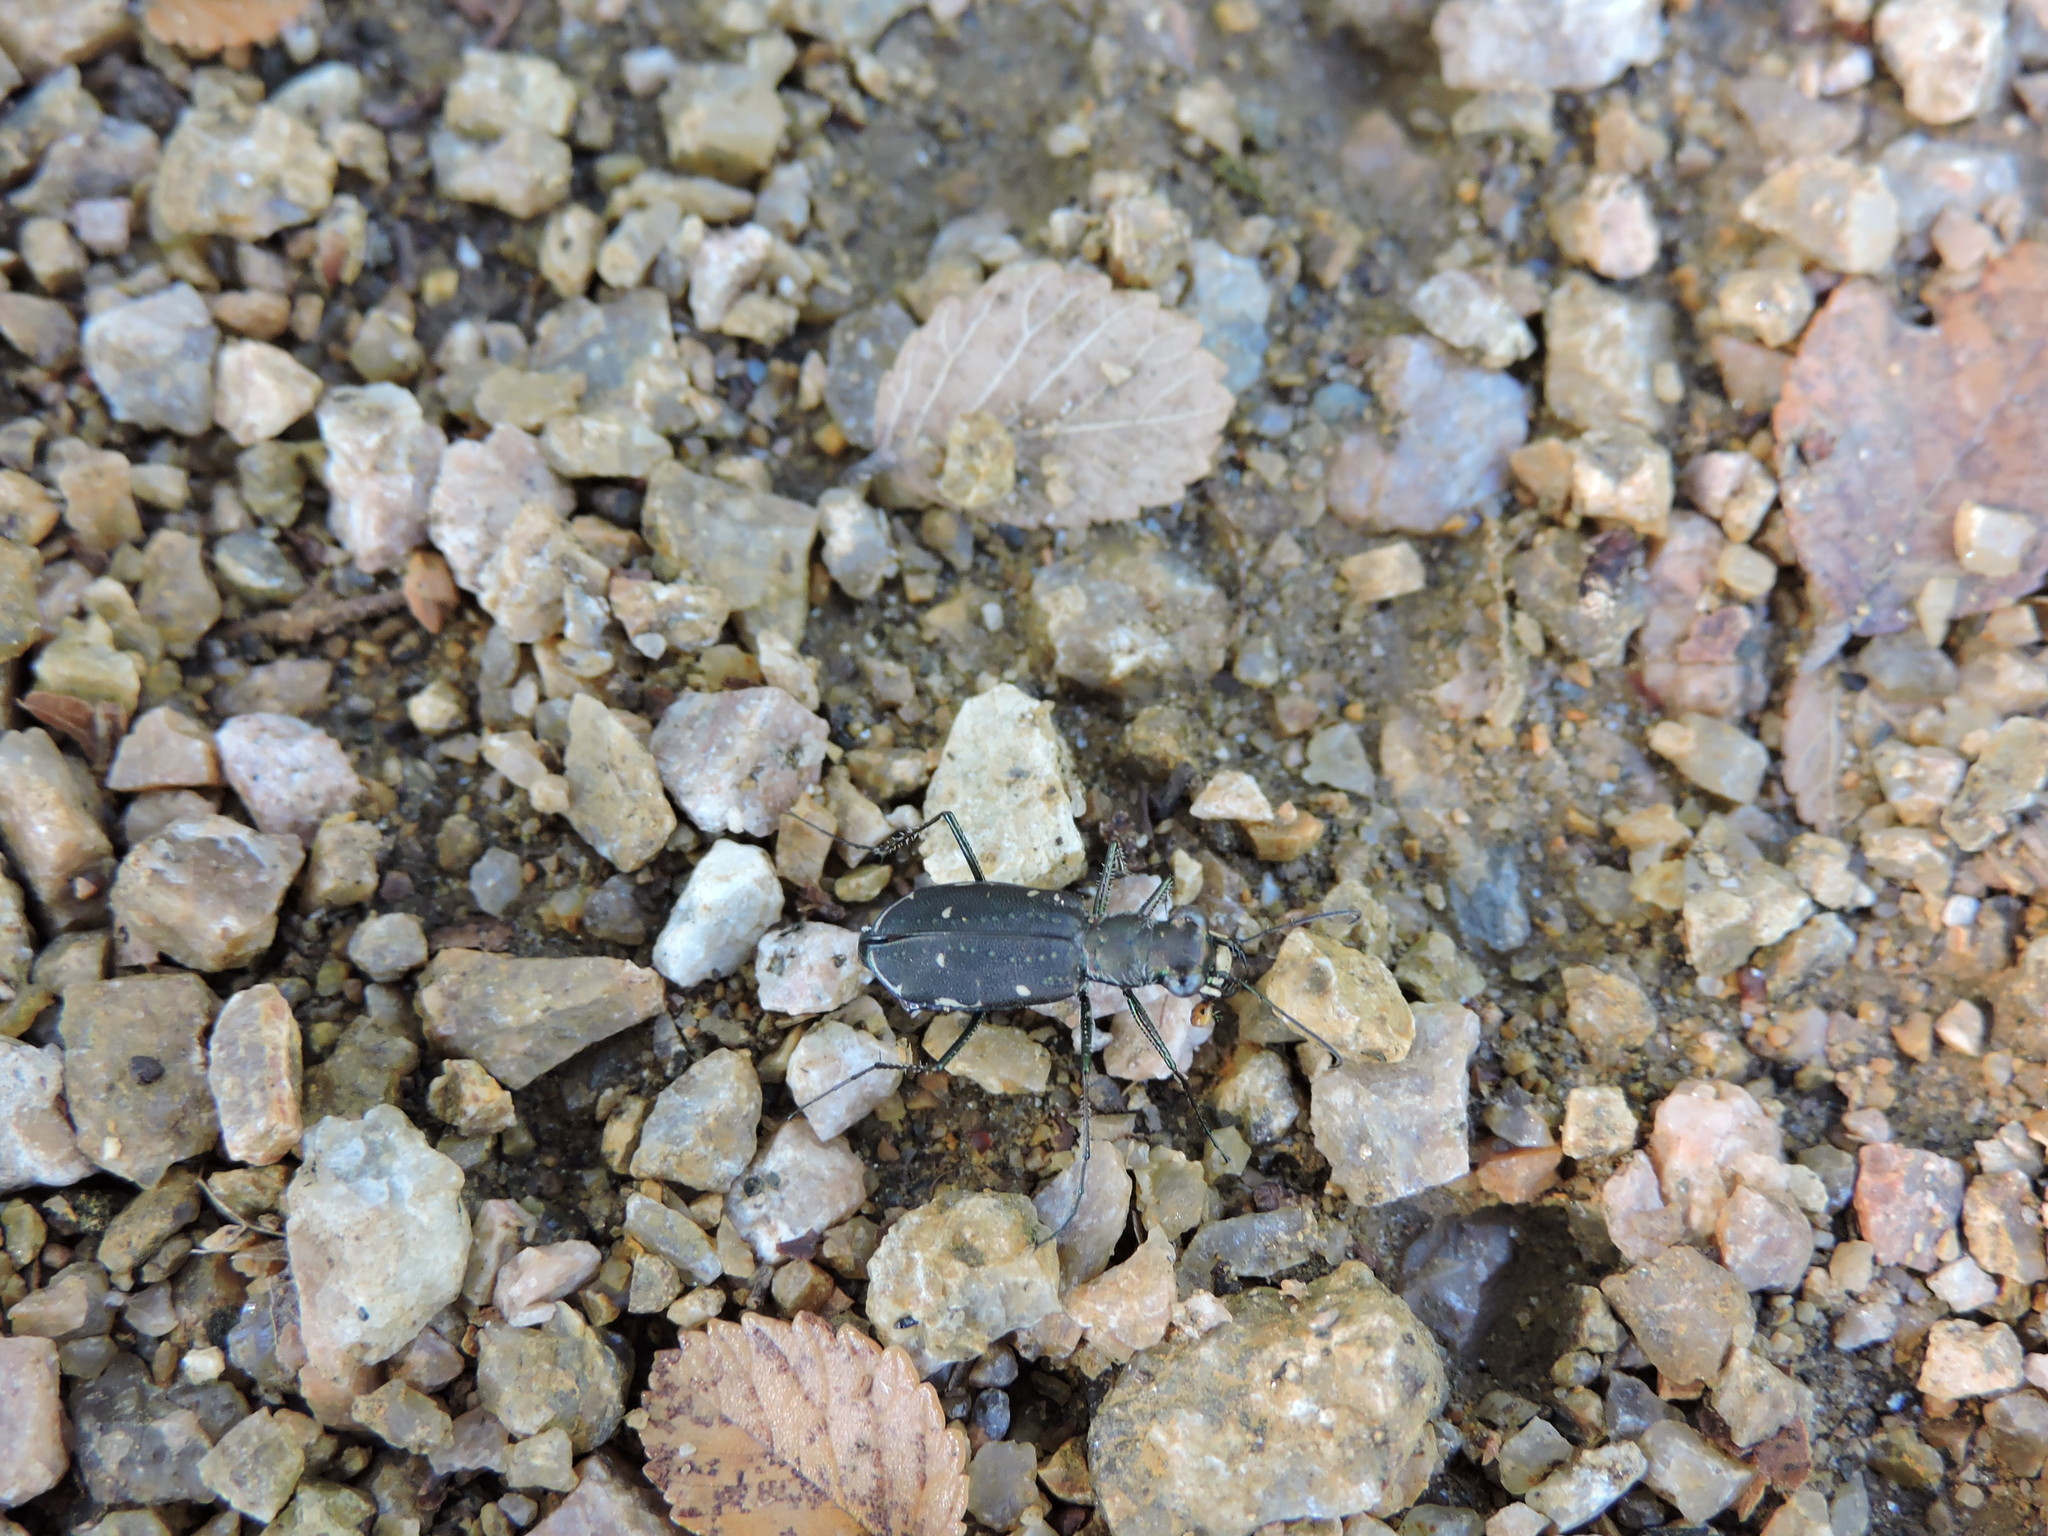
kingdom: Animalia
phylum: Arthropoda
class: Insecta
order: Coleoptera
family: Carabidae
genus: Cicindela
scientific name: Cicindela punctulata
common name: Punctured tiger beetle
